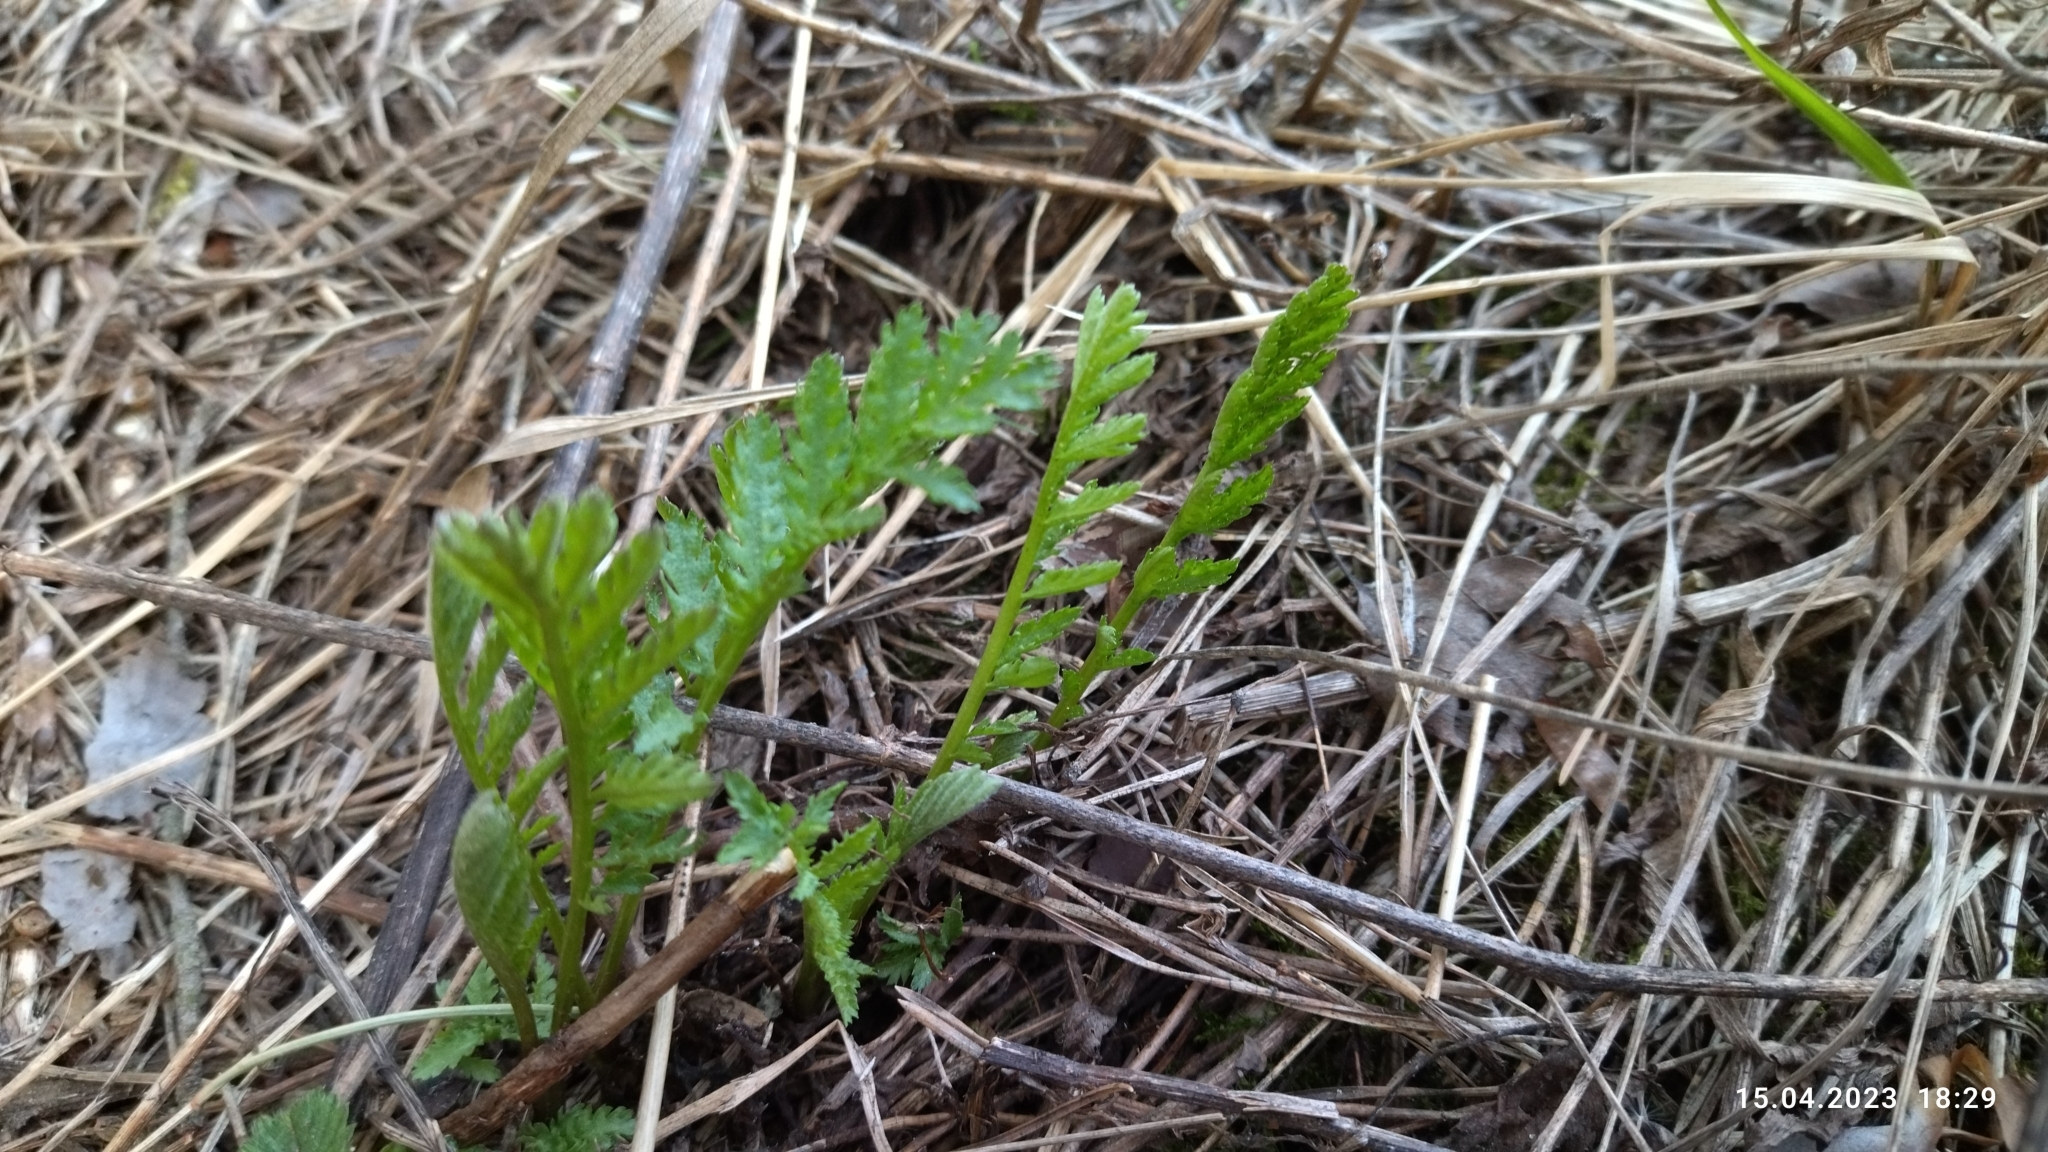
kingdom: Plantae
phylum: Tracheophyta
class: Magnoliopsida
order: Asterales
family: Asteraceae
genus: Tanacetum
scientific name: Tanacetum vulgare
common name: Common tansy
